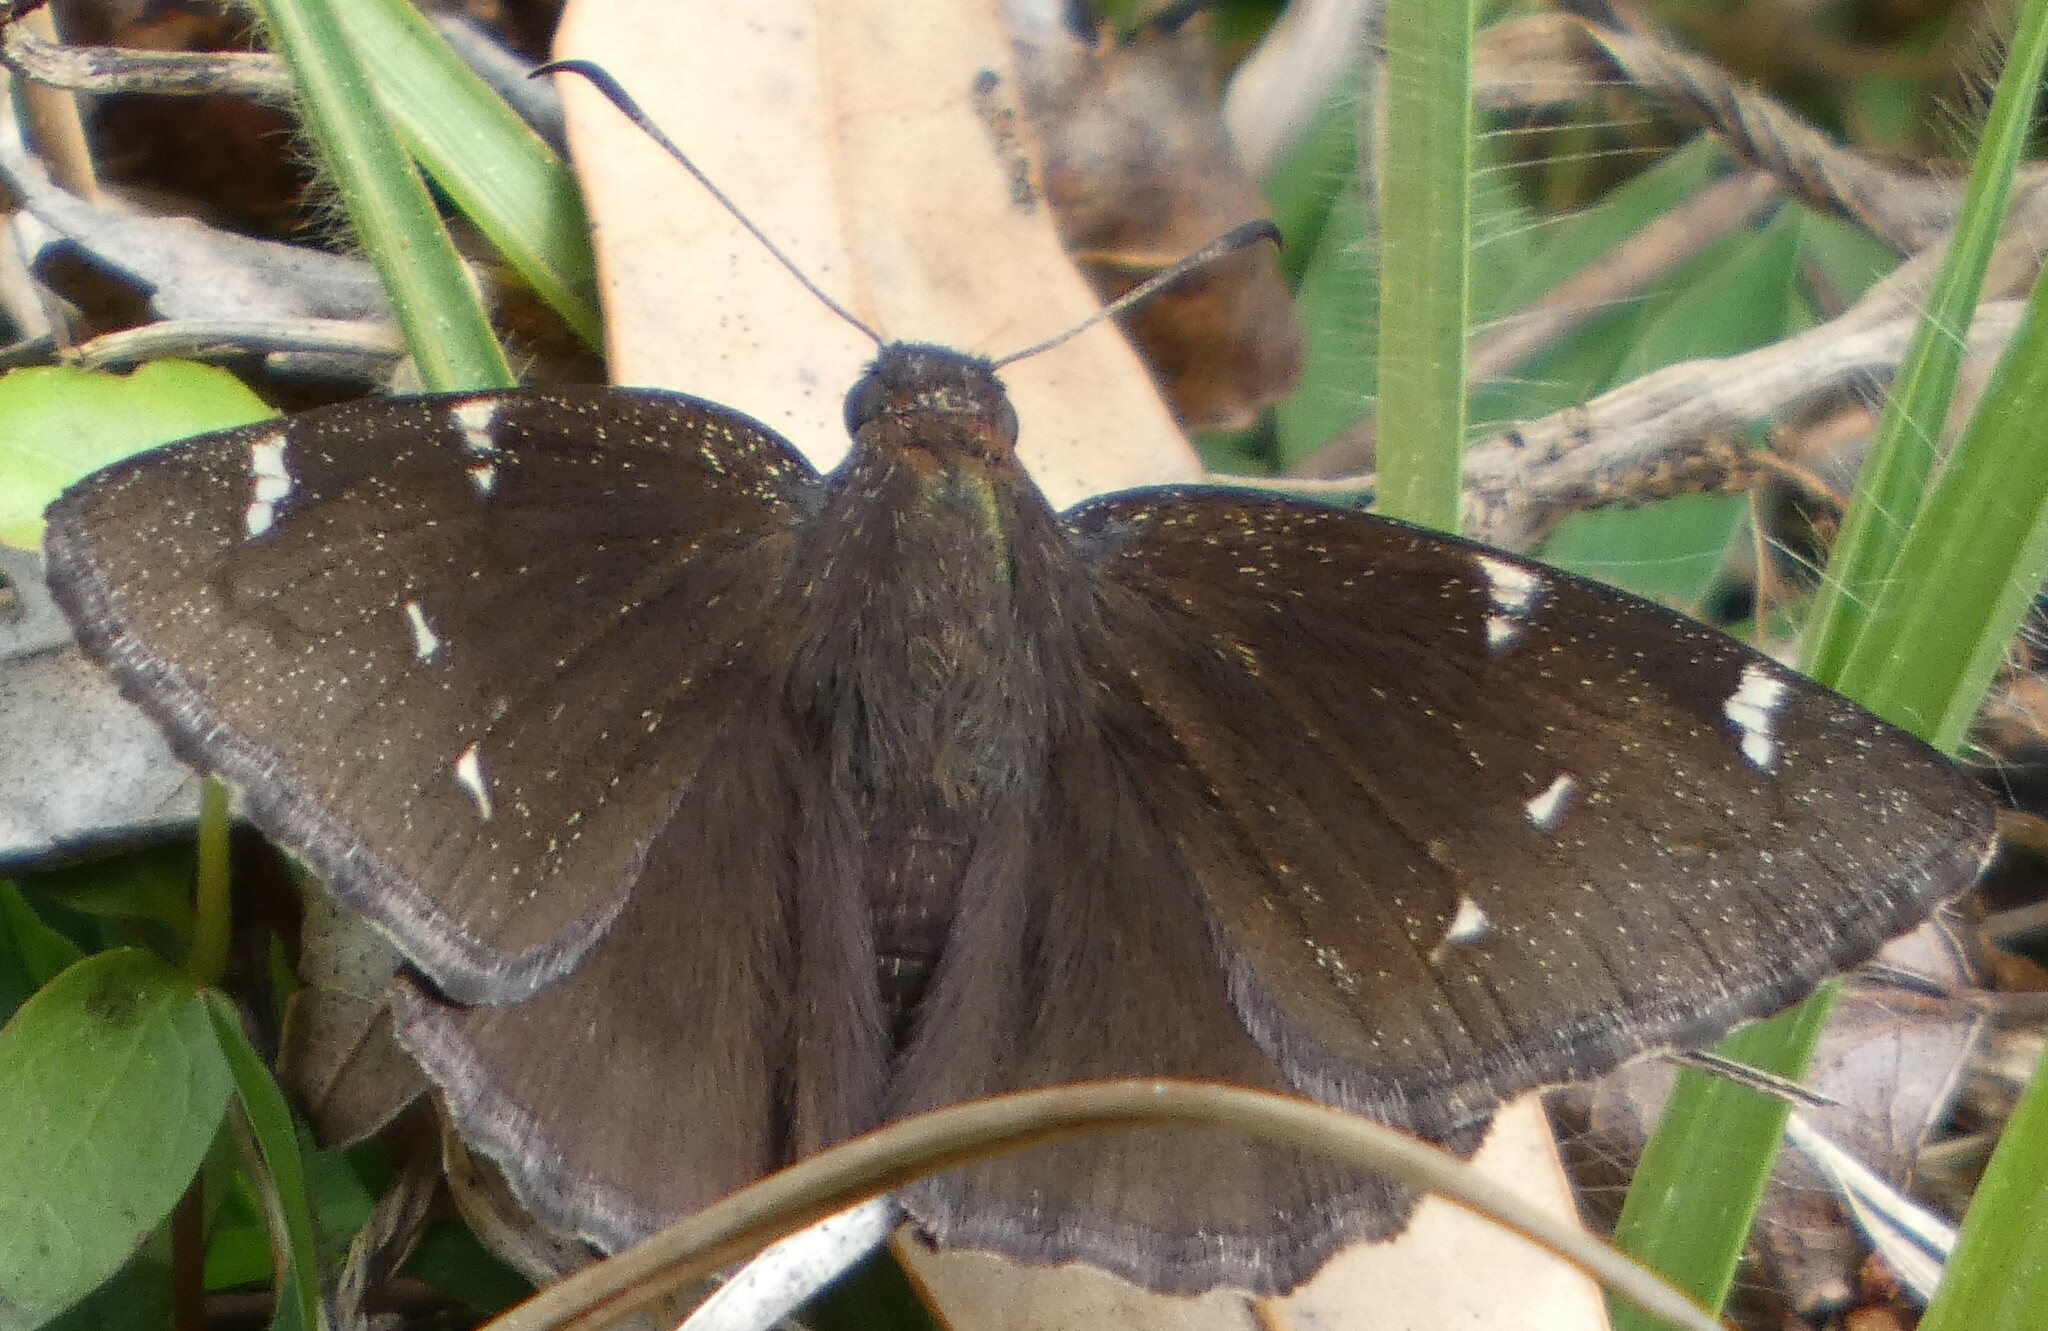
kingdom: Animalia
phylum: Arthropoda
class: Insecta
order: Lepidoptera
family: Hesperiidae
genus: Thorybes
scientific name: Thorybes pylades
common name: Northern cloudywing
